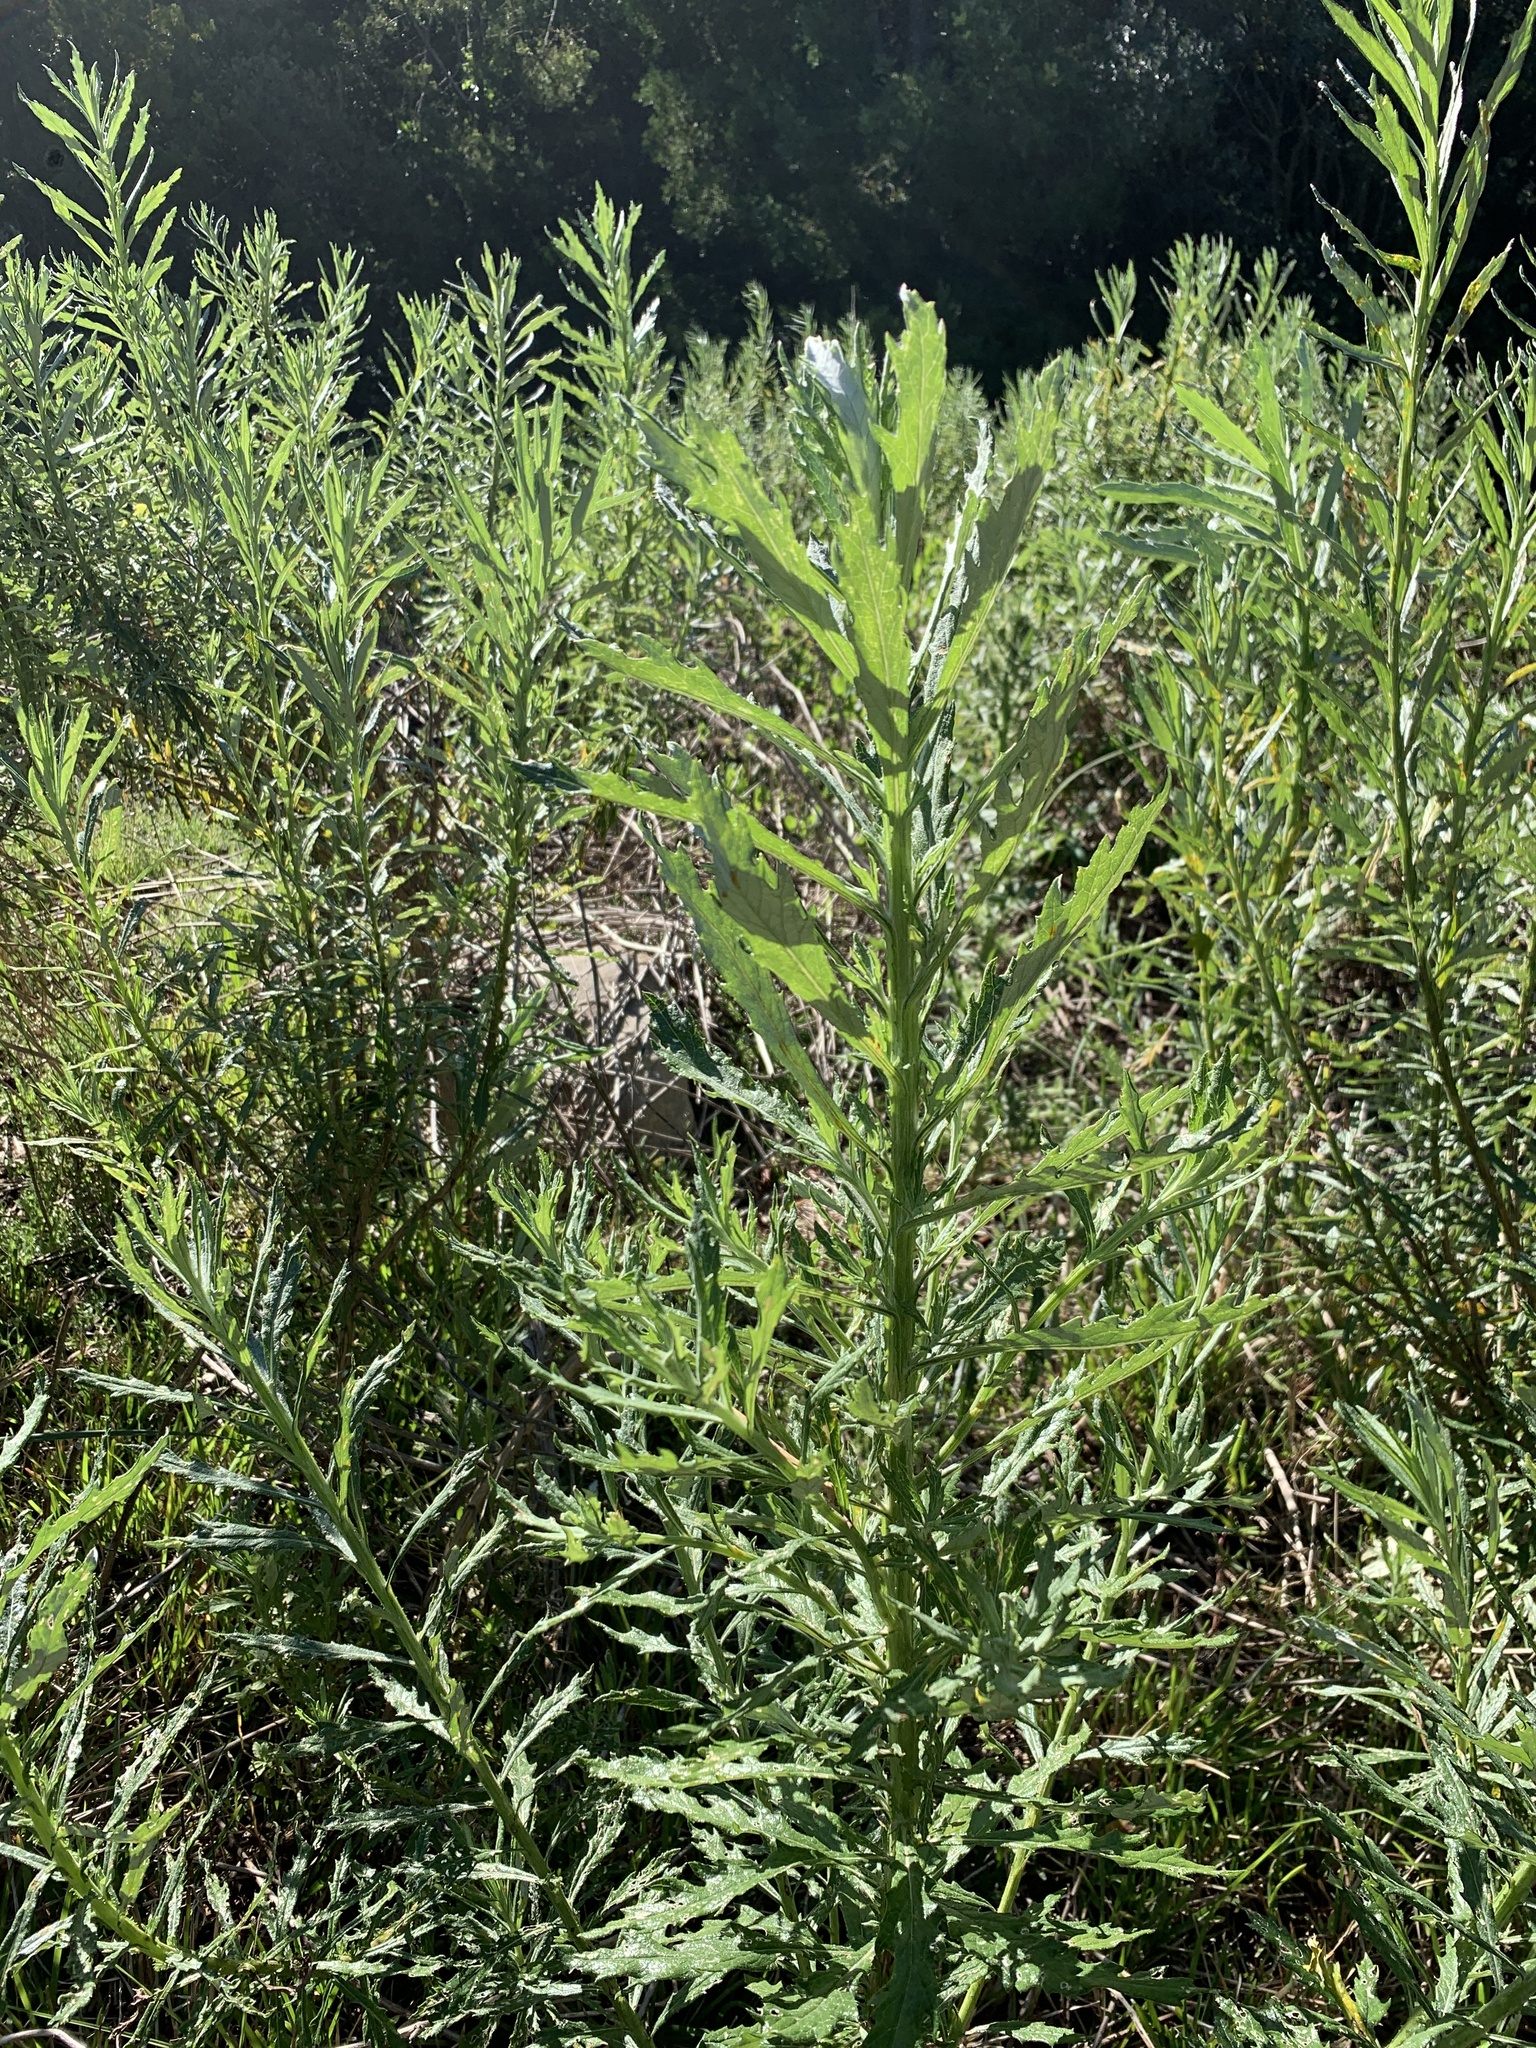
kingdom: Plantae
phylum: Tracheophyta
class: Magnoliopsida
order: Asterales
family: Asteraceae
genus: Senecio
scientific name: Senecio pterophorus
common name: Shoddy ragwort
